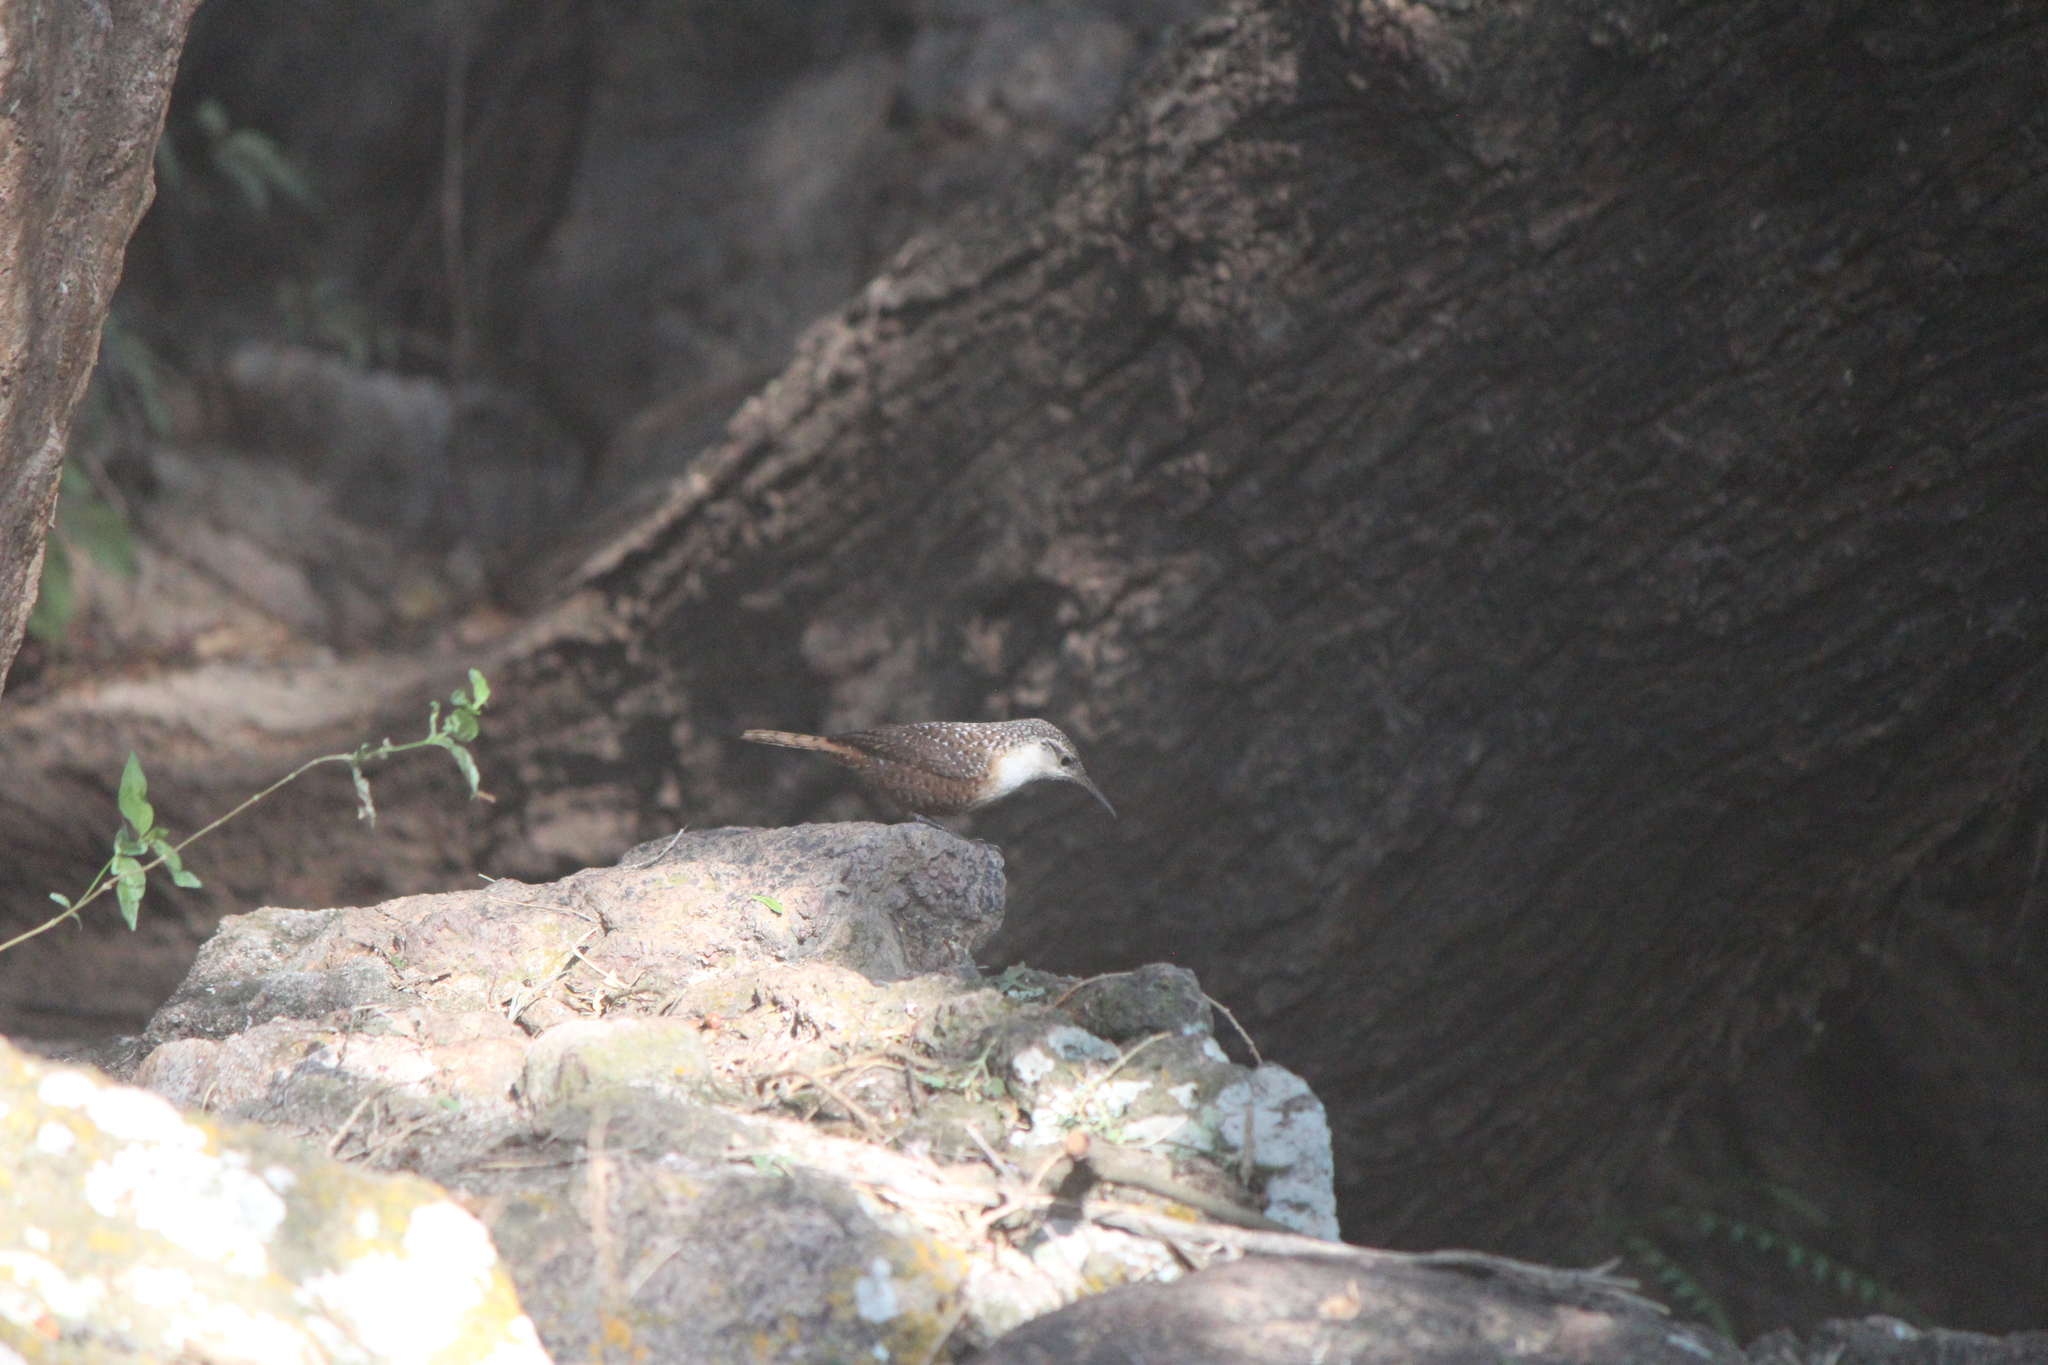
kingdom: Animalia
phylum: Chordata
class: Aves
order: Passeriformes
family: Troglodytidae
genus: Catherpes
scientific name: Catherpes mexicanus
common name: Canyon wren
